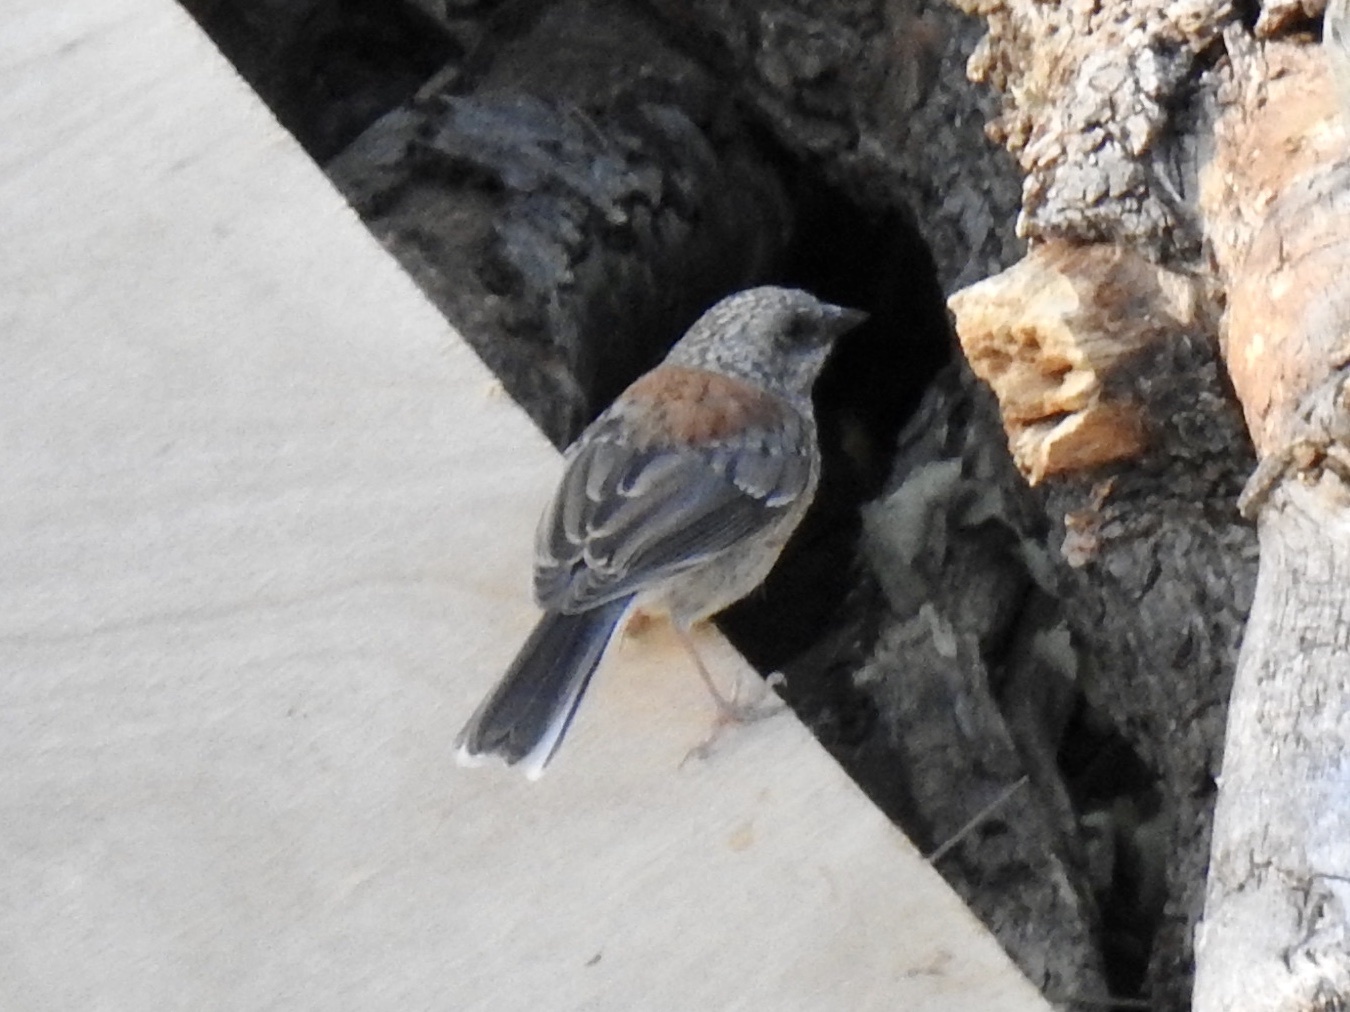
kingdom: Animalia
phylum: Chordata
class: Aves
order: Passeriformes
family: Passerellidae
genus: Junco
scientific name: Junco hyemalis
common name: Dark-eyed junco
